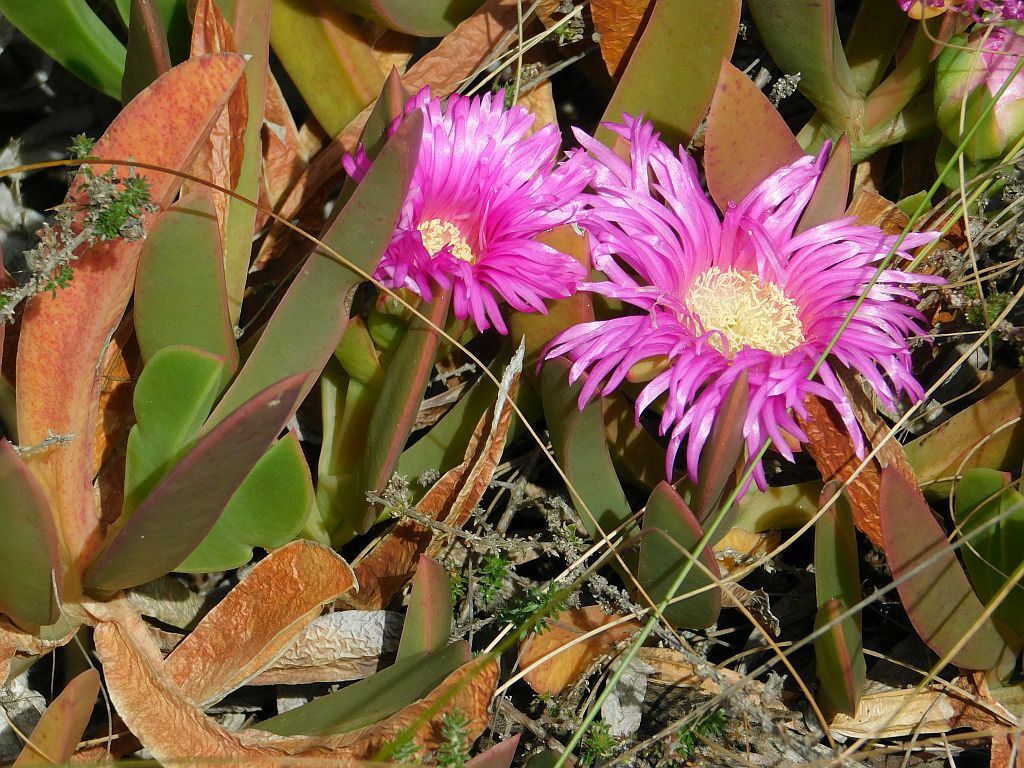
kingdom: Plantae
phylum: Tracheophyta
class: Magnoliopsida
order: Caryophyllales
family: Aizoaceae
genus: Carpobrotus
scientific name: Carpobrotus mellei
